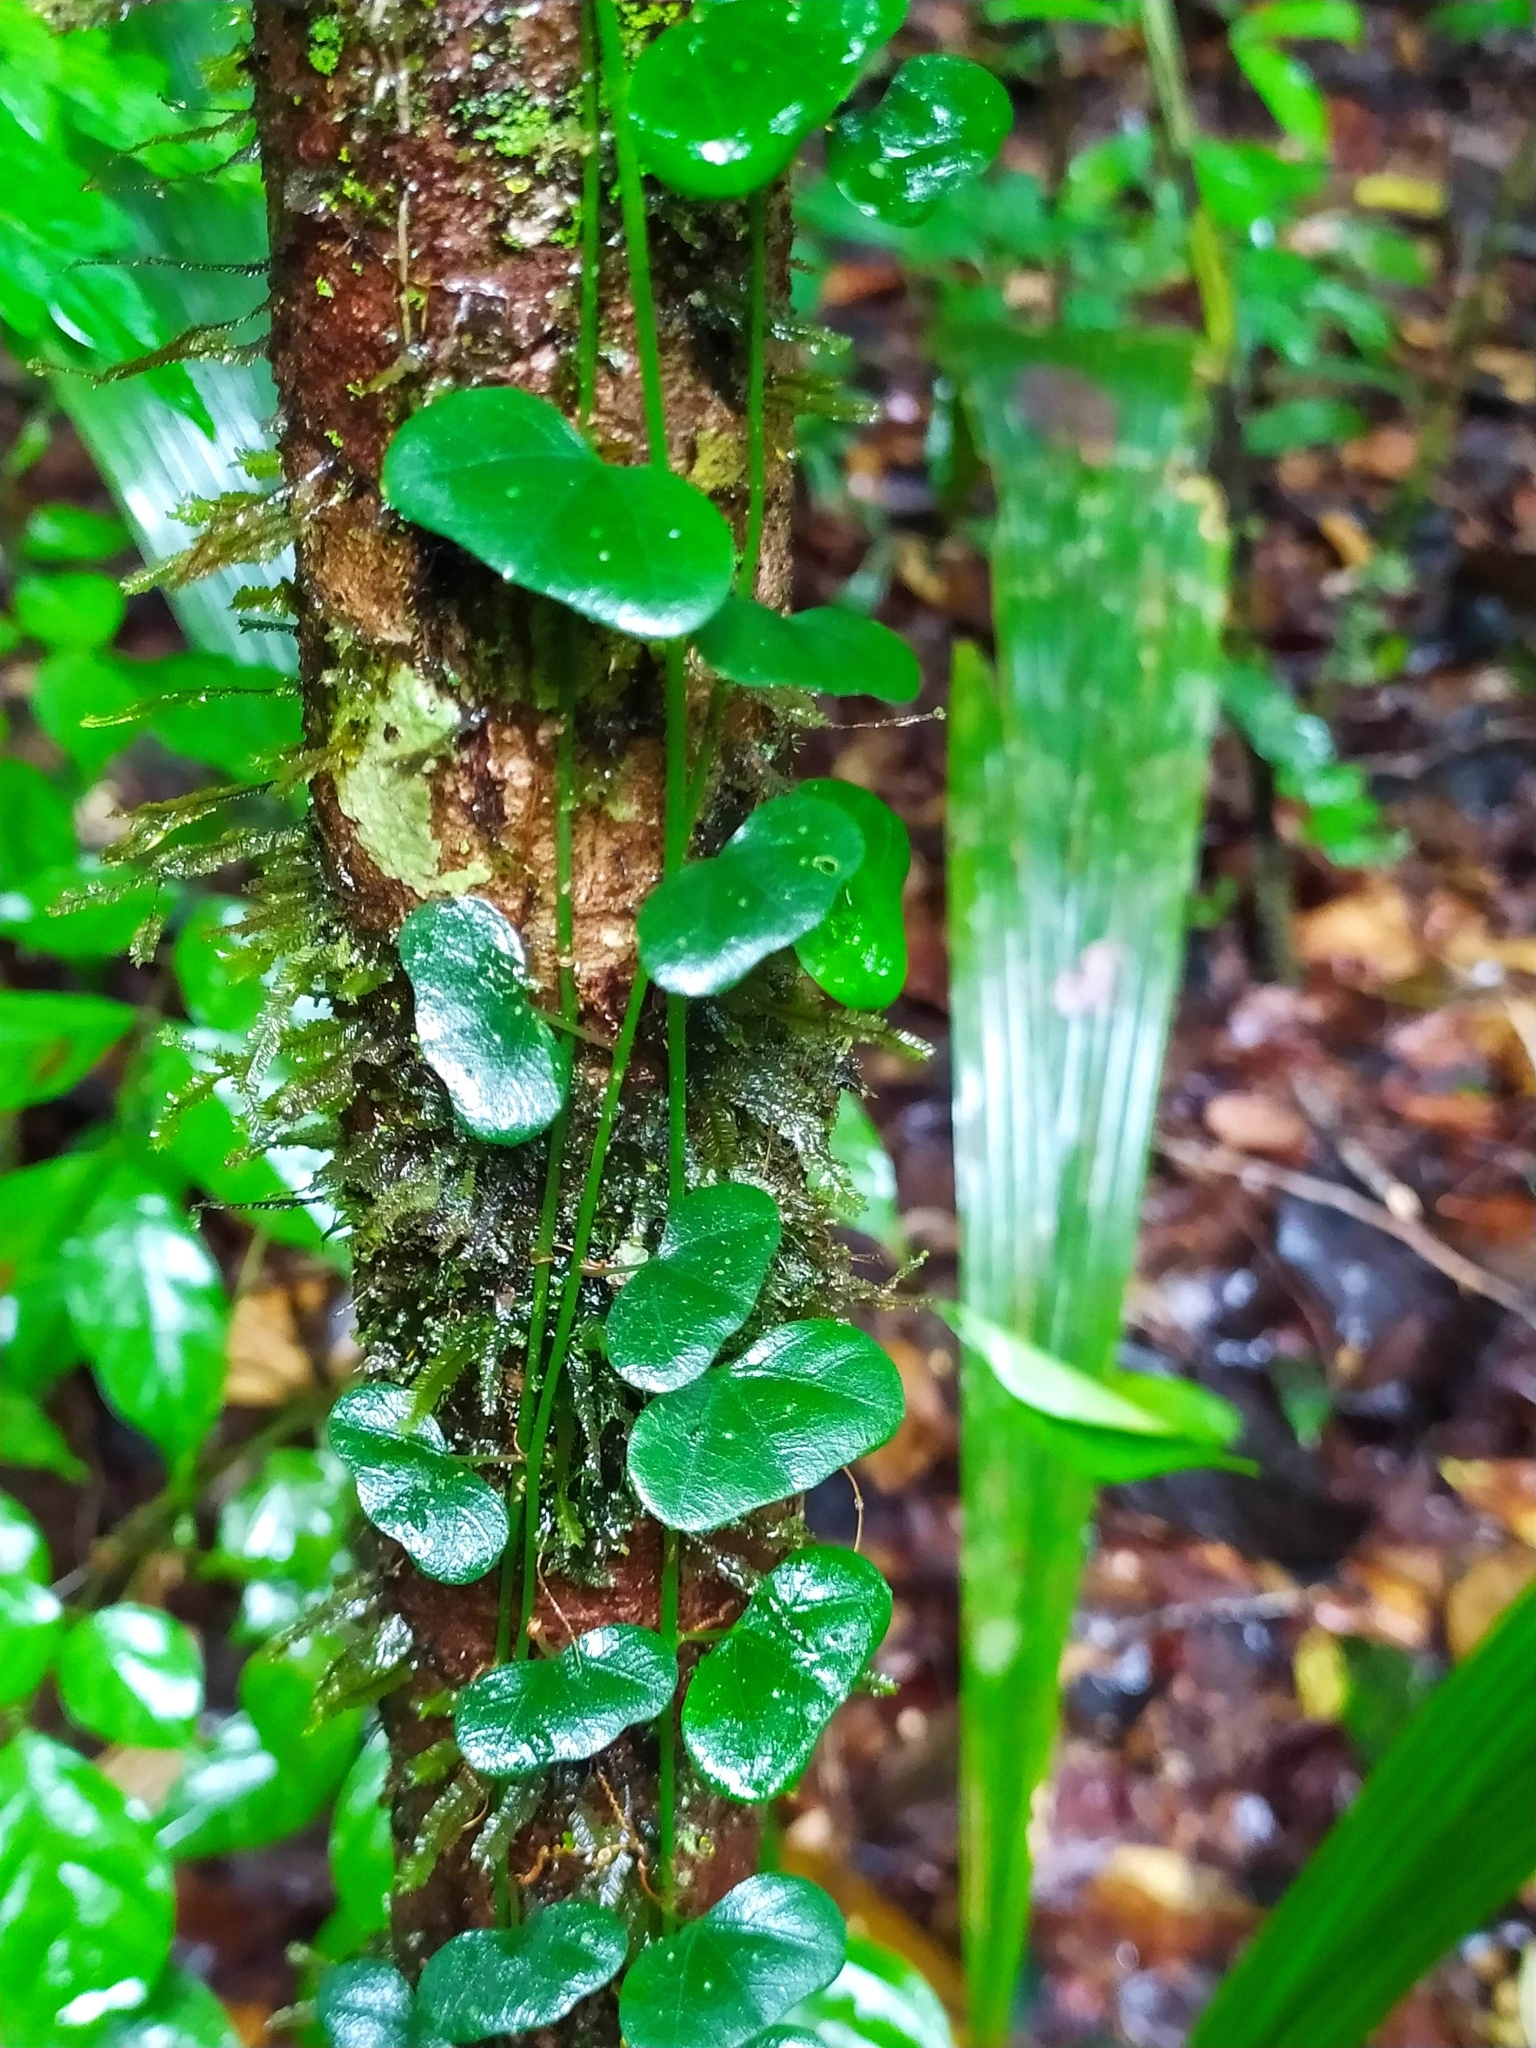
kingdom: Plantae
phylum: Tracheophyta
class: Magnoliopsida
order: Malpighiales
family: Passifloraceae
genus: Passiflora
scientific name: Passiflora
